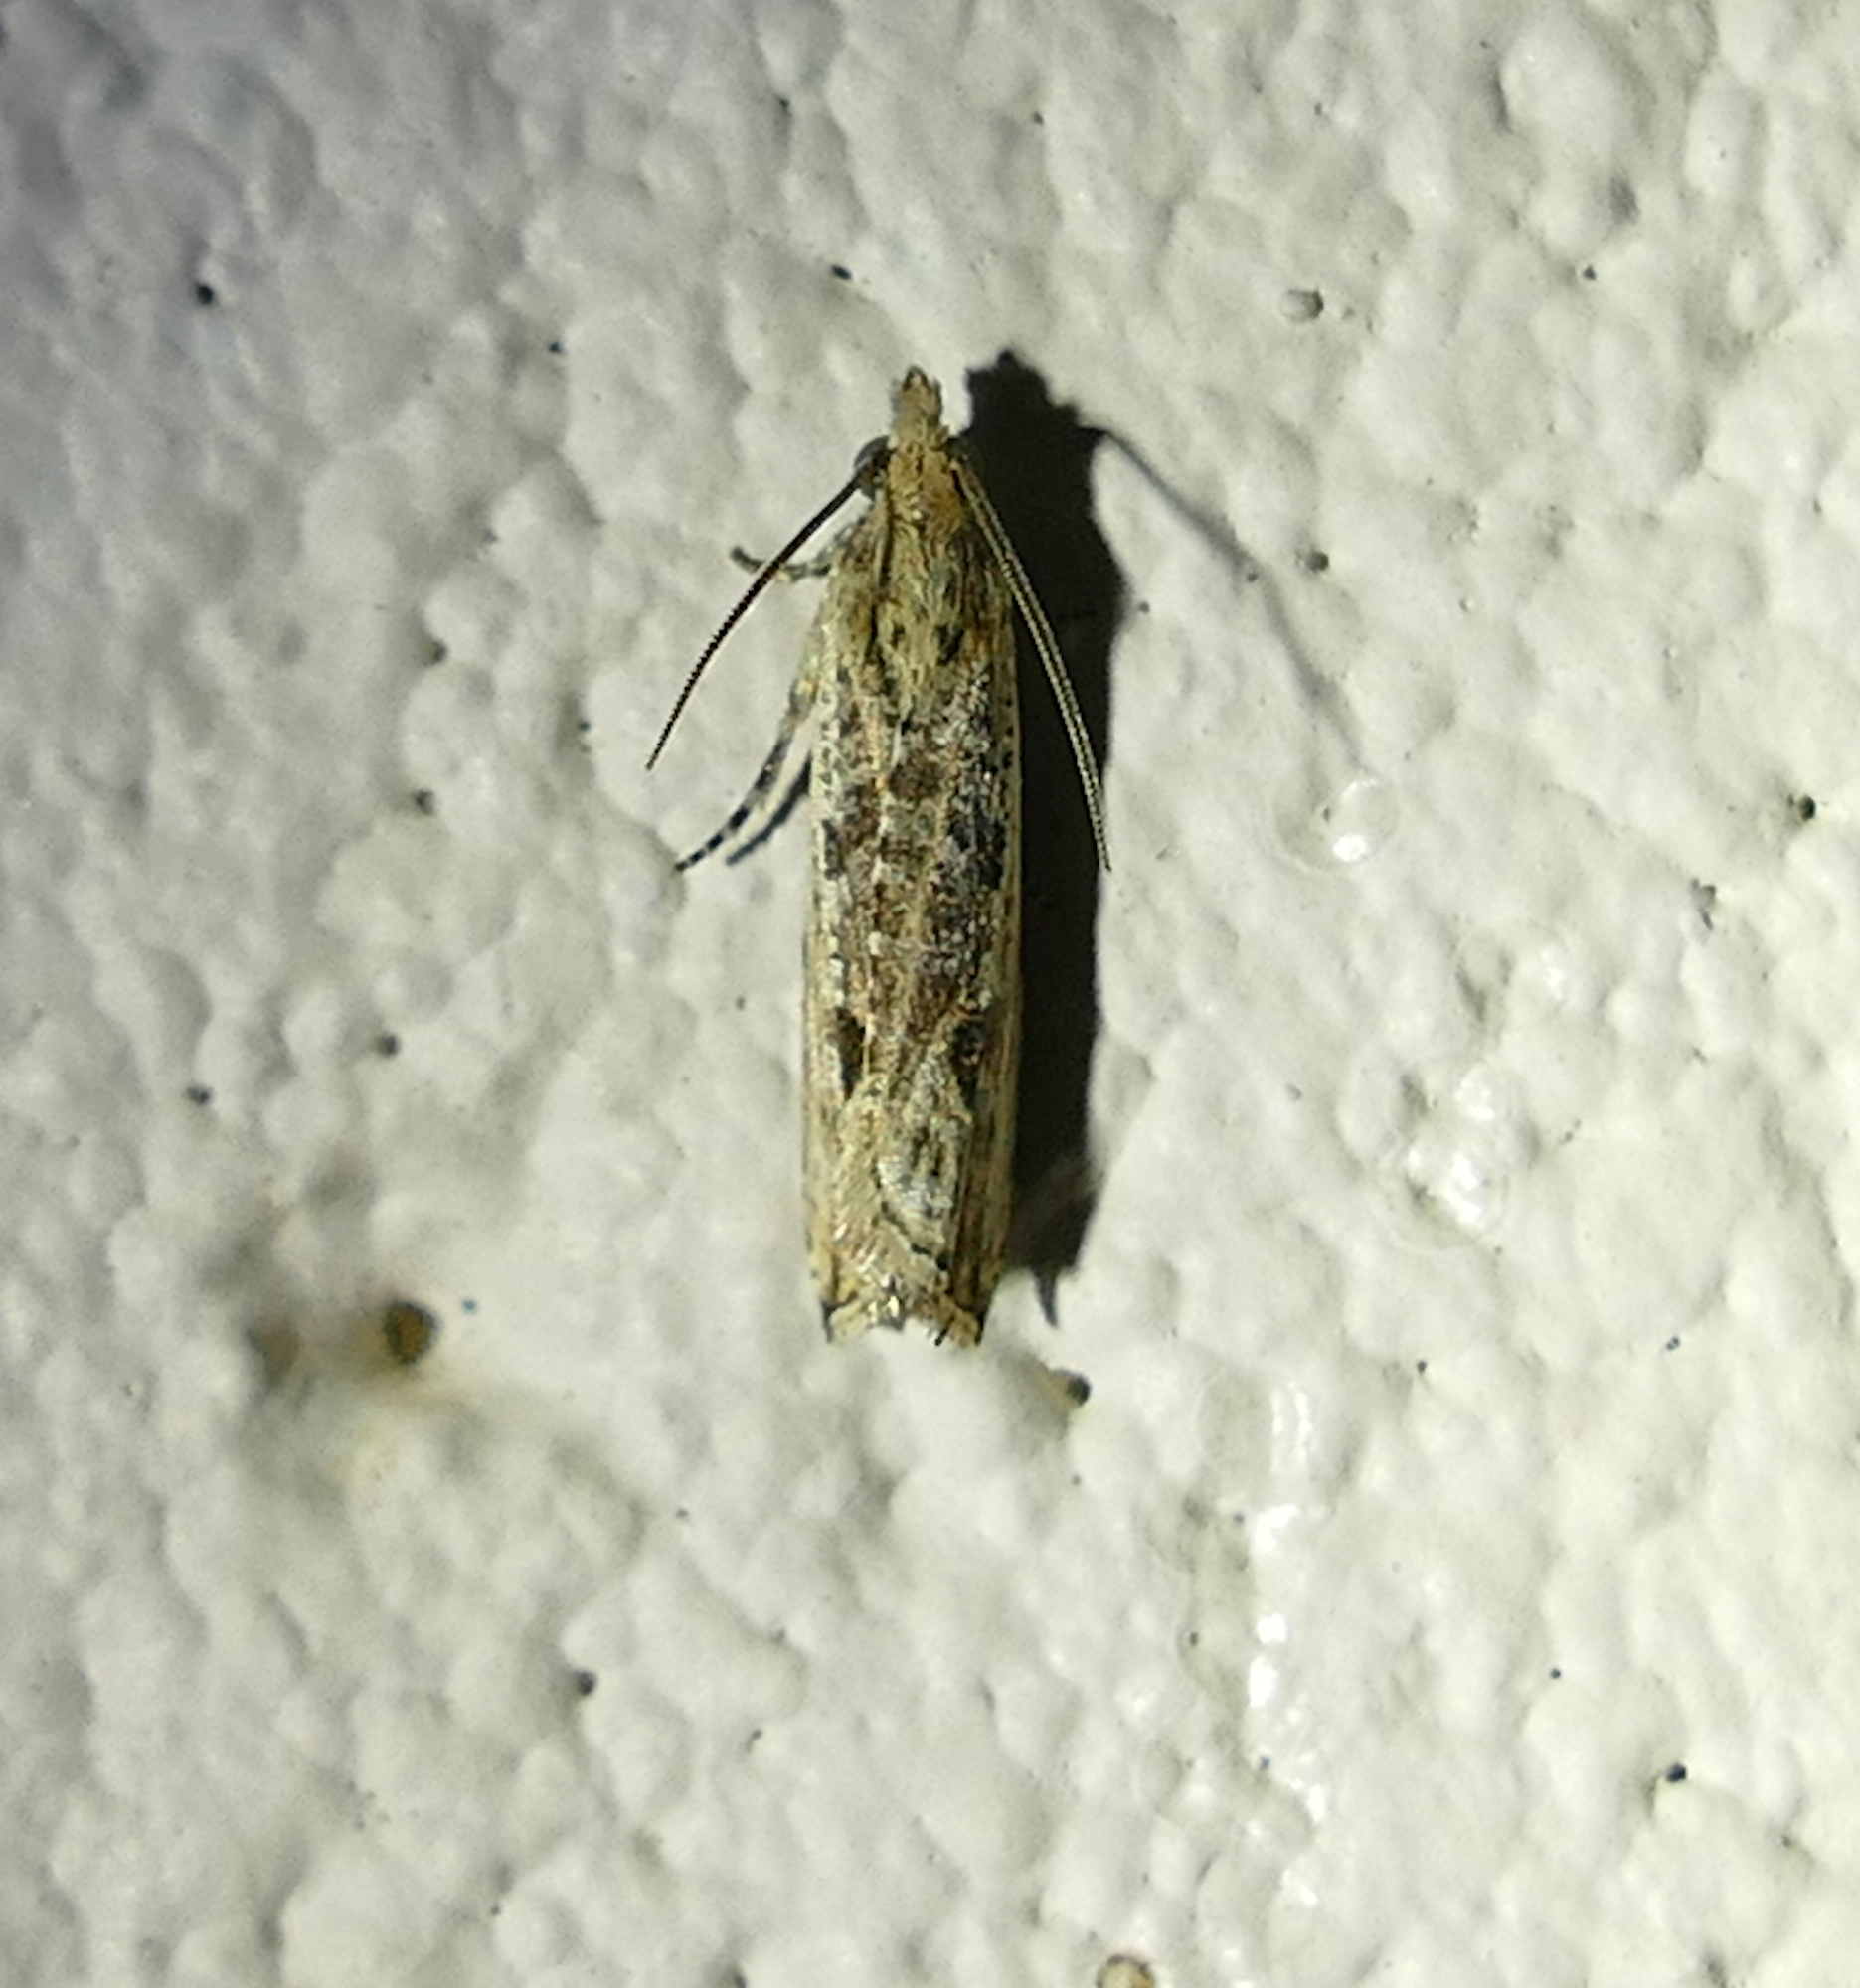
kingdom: Animalia
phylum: Arthropoda
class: Insecta
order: Lepidoptera
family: Tortricidae
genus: Bactra
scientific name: Bactra verutana
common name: Javelin moth
